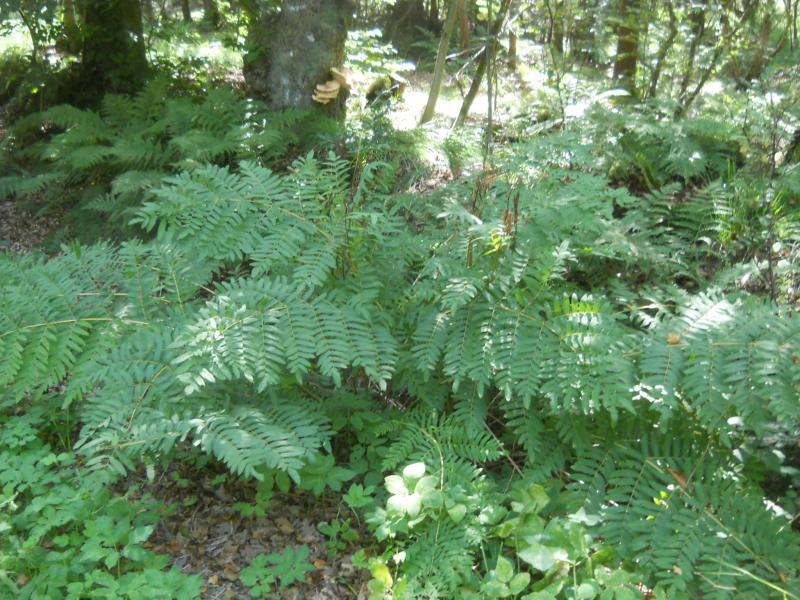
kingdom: Plantae
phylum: Tracheophyta
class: Polypodiopsida
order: Osmundales
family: Osmundaceae
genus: Osmunda
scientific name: Osmunda regalis
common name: Royal fern
